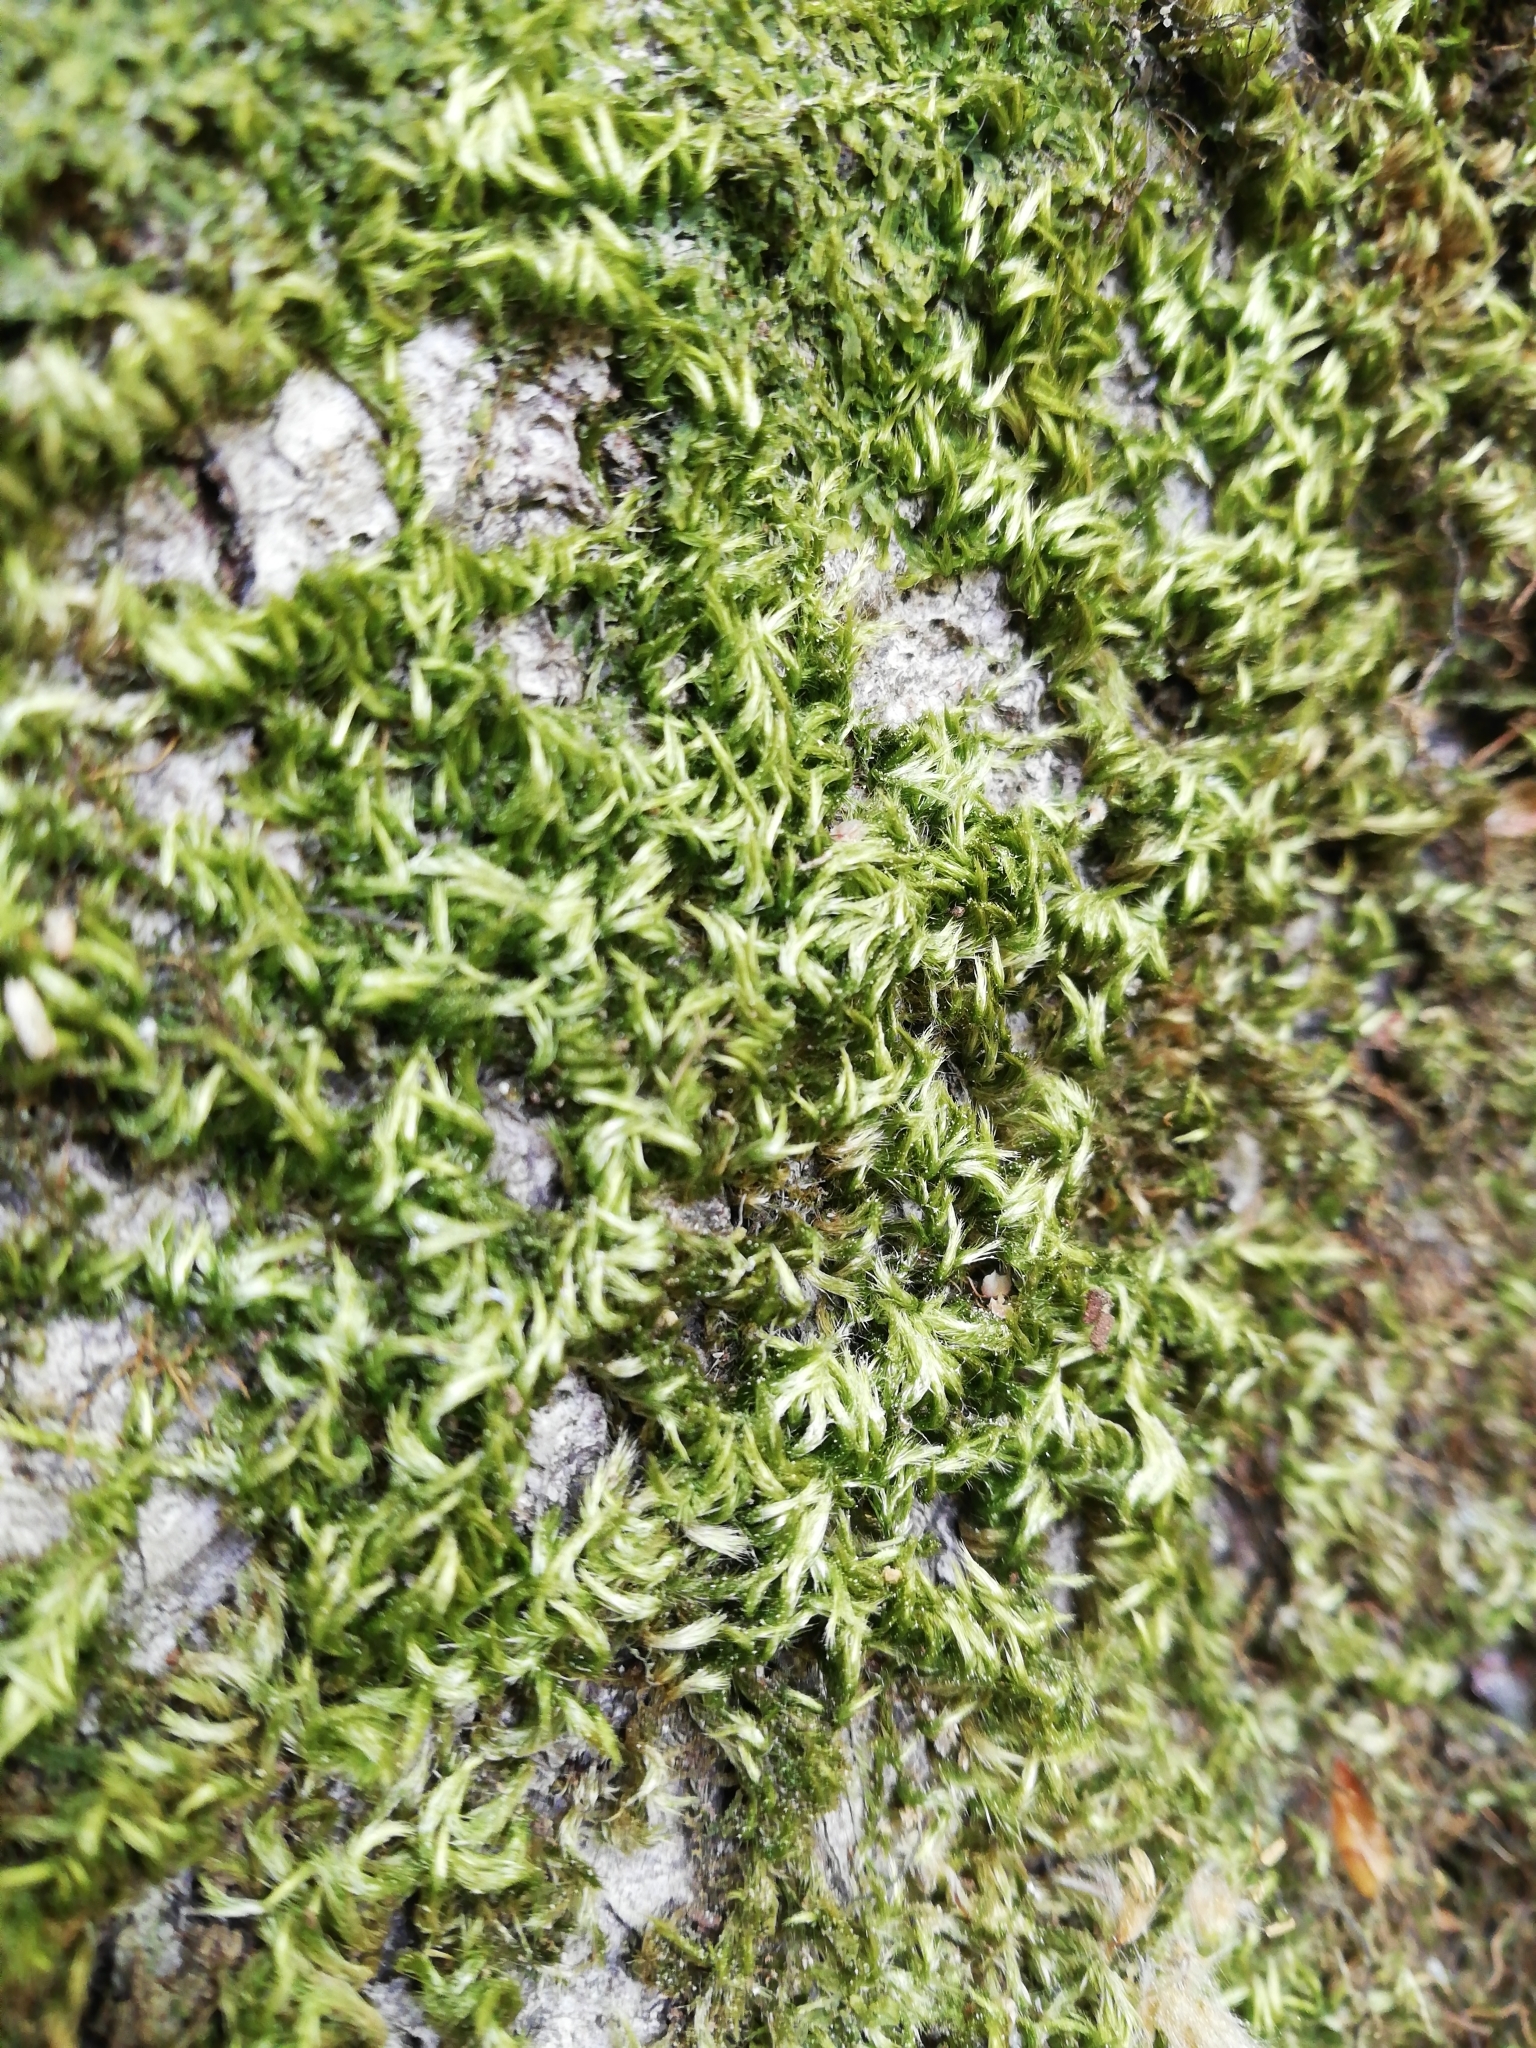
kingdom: Plantae
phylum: Bryophyta
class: Bryopsida
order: Hypnales
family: Brachytheciaceae
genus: Homalothecium
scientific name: Homalothecium sericeum
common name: Silky wall feather-moss
